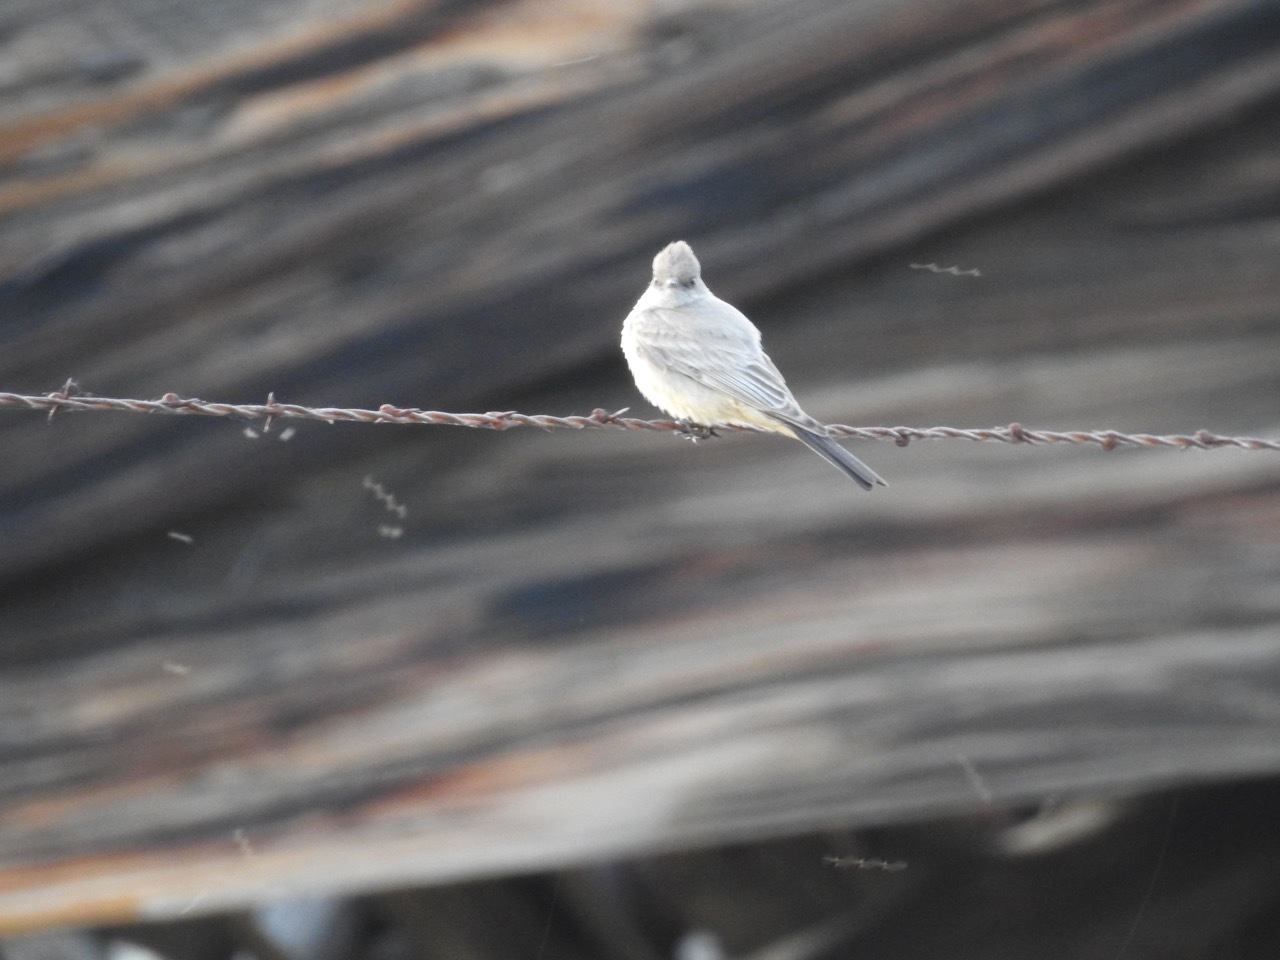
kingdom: Animalia
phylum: Chordata
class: Aves
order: Passeriformes
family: Tyrannidae
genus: Sayornis
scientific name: Sayornis saya
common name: Say's phoebe
